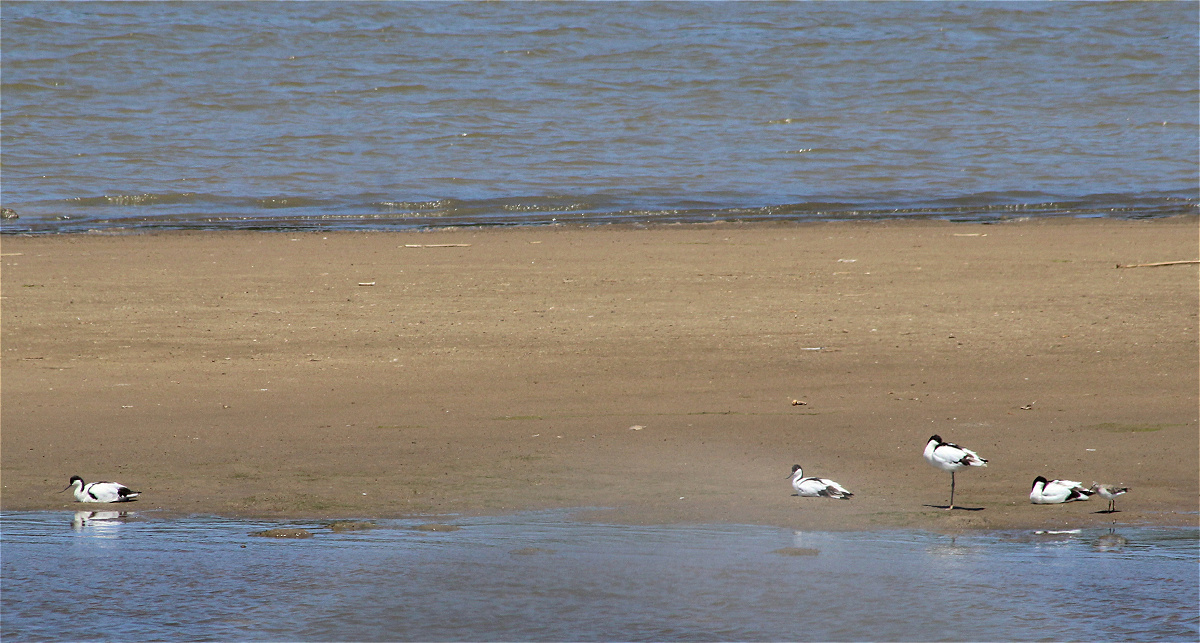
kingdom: Animalia
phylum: Chordata
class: Aves
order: Charadriiformes
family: Recurvirostridae
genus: Recurvirostra
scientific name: Recurvirostra avosetta
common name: Pied avocet
